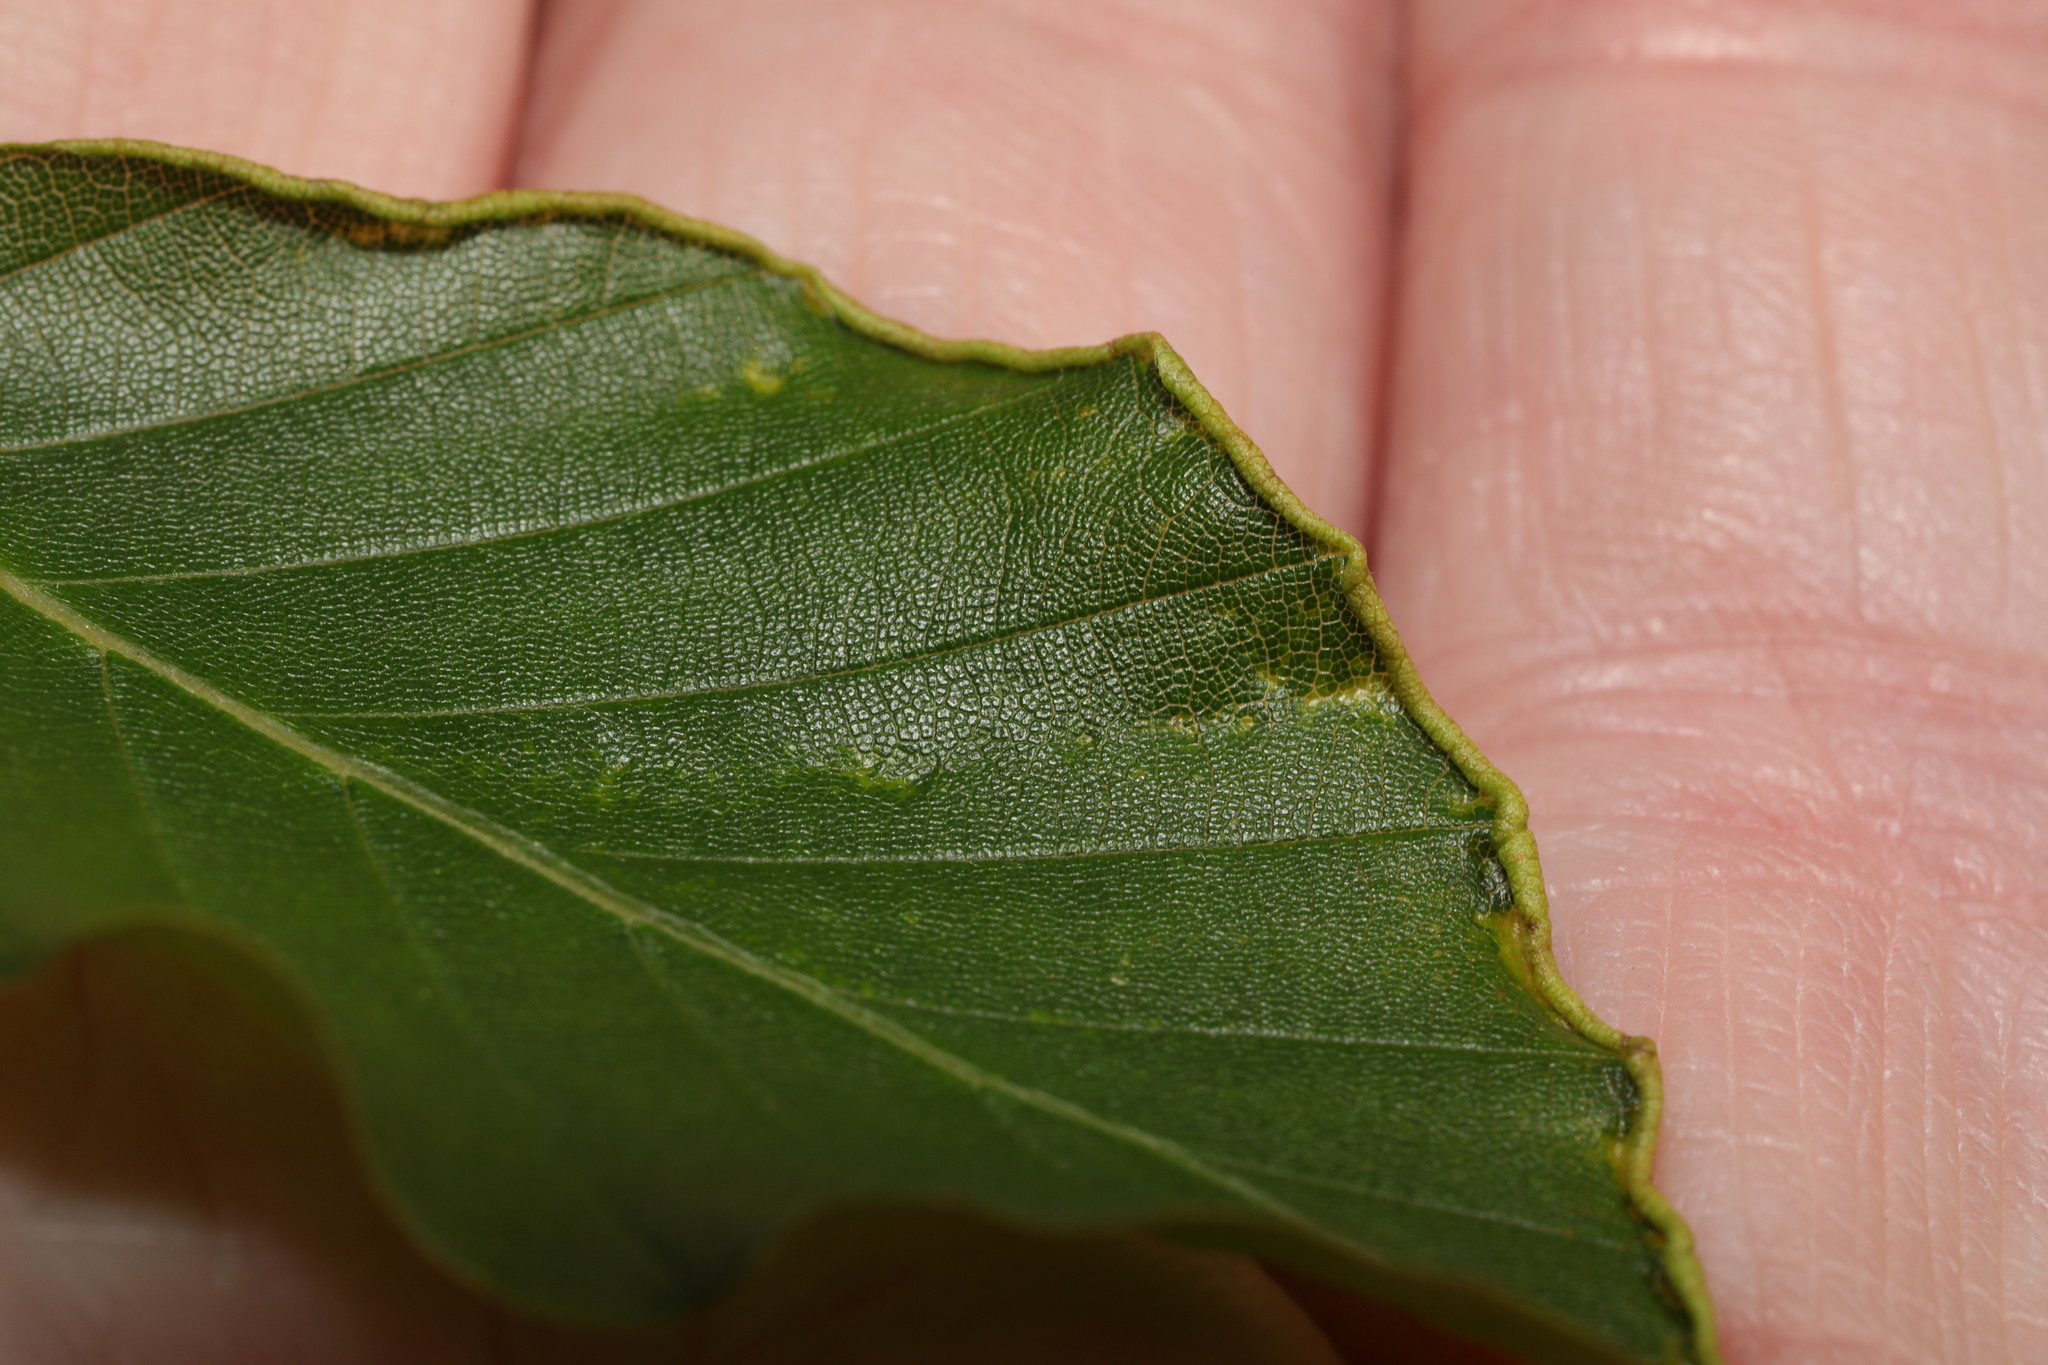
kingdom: Animalia
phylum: Arthropoda
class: Arachnida
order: Trombidiformes
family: Eriophyidae
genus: Acalitus
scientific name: Acalitus stenaspis
